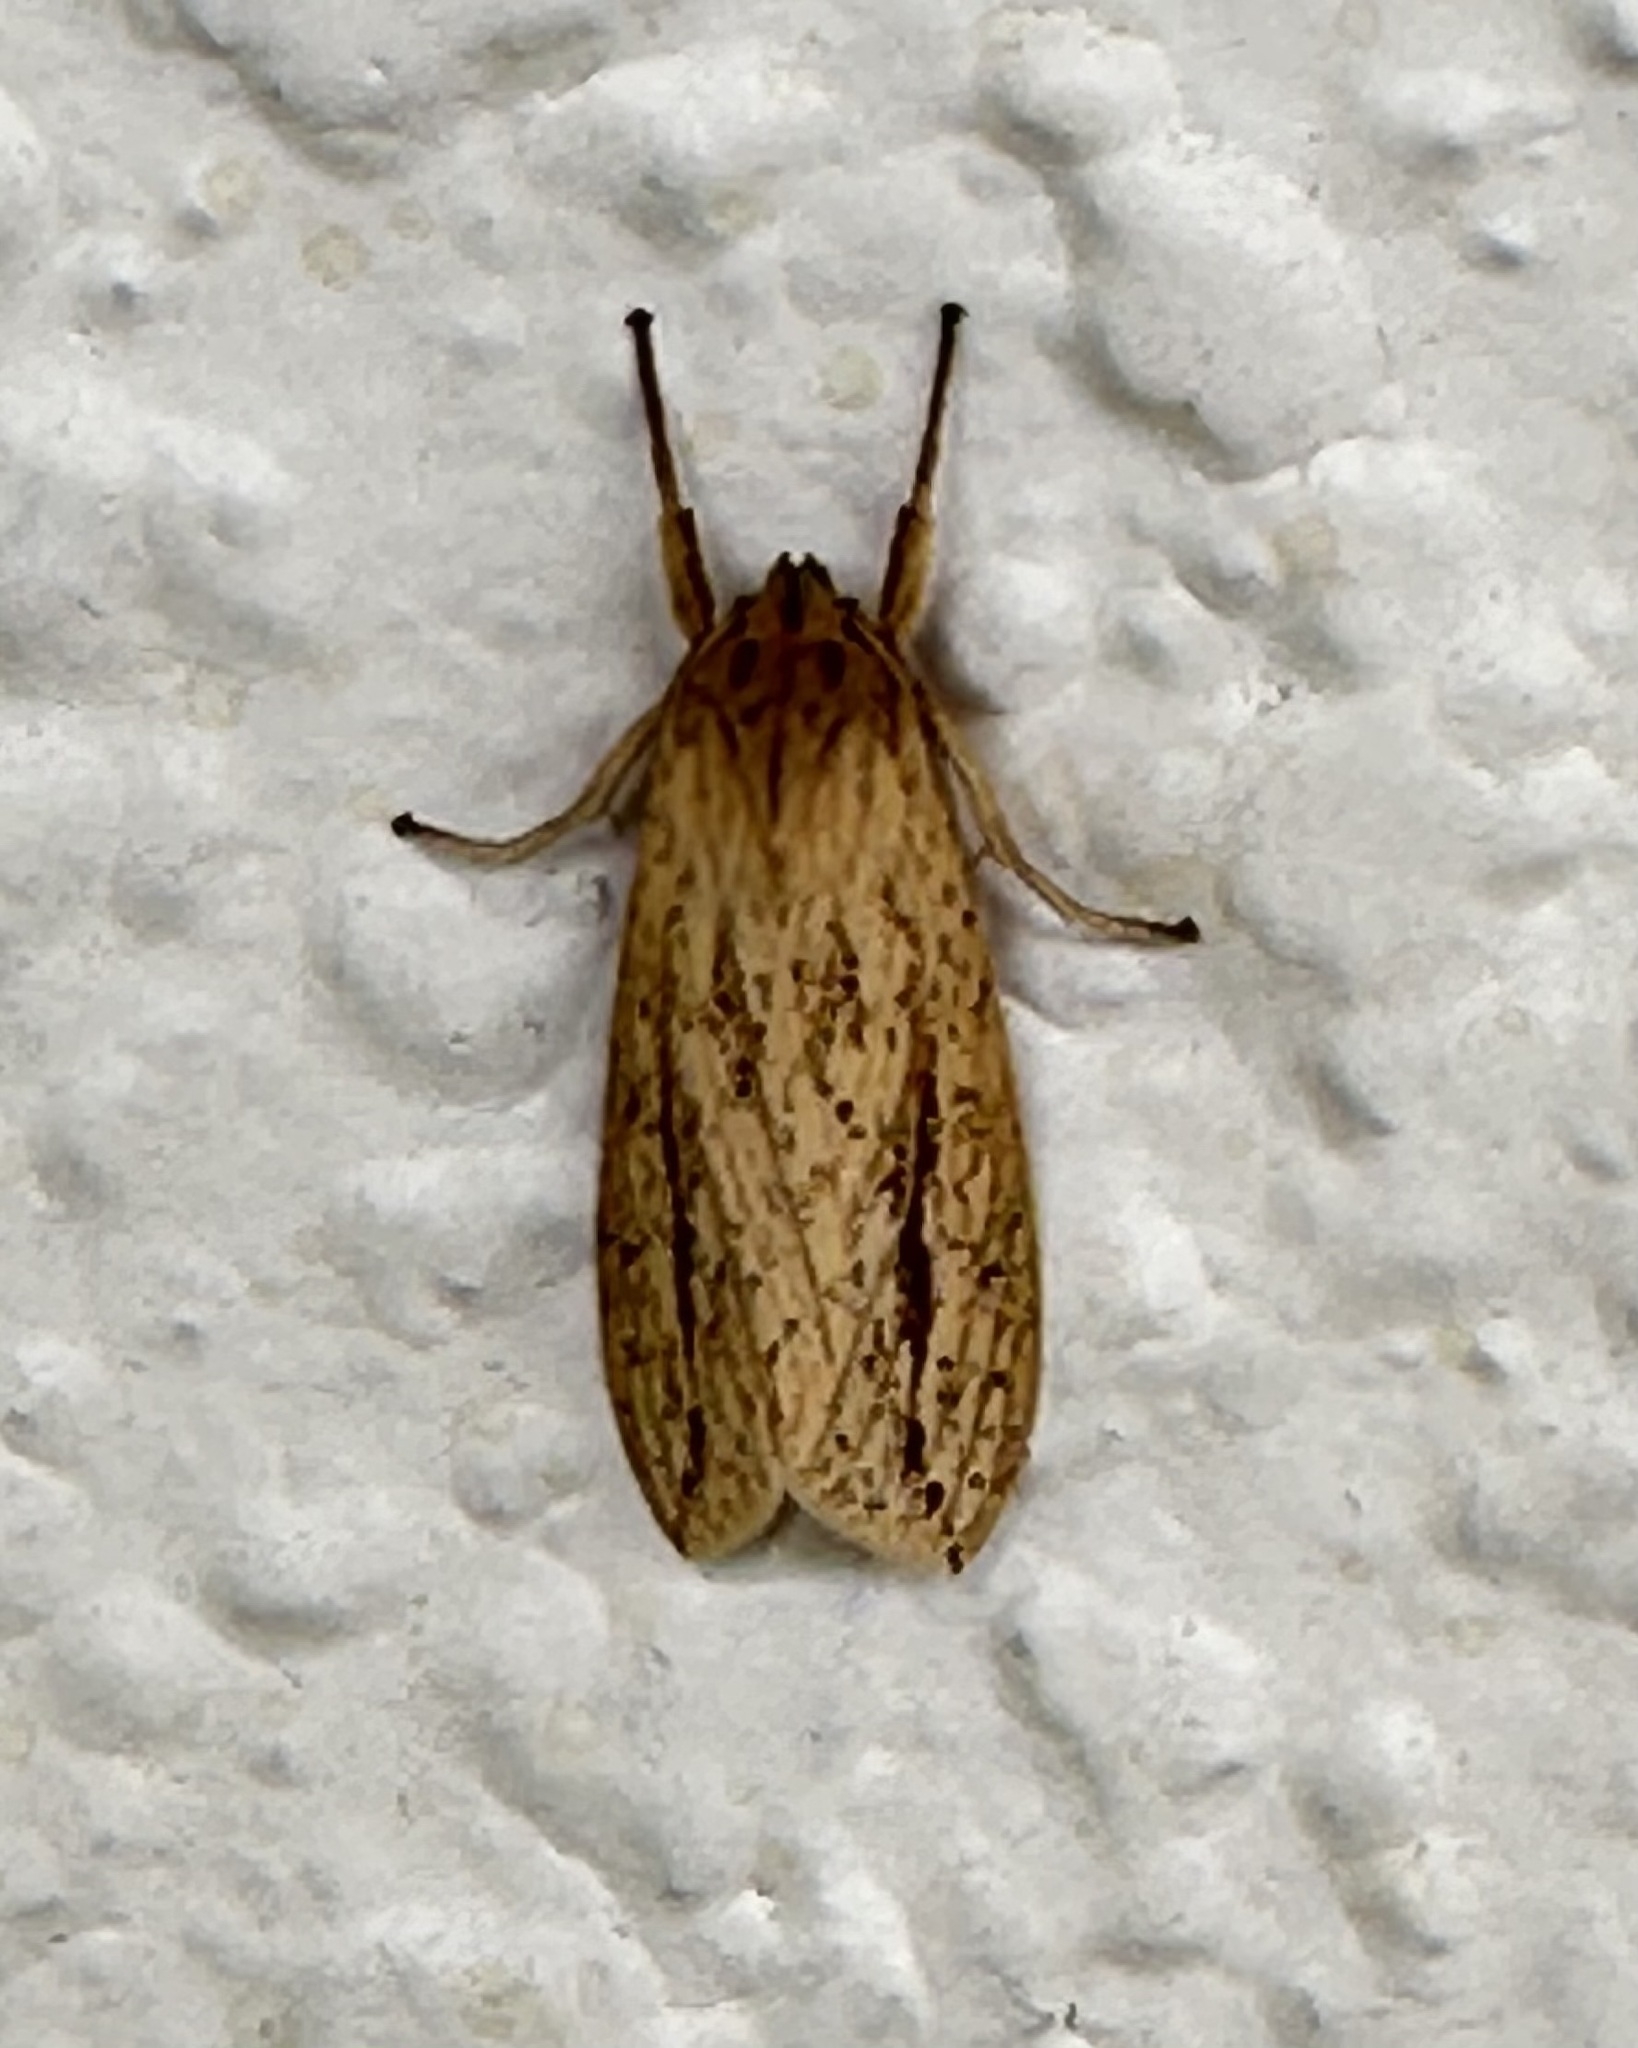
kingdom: Animalia
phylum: Arthropoda
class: Insecta
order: Lepidoptera
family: Erebidae
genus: Leucanopsis
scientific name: Leucanopsis longa
